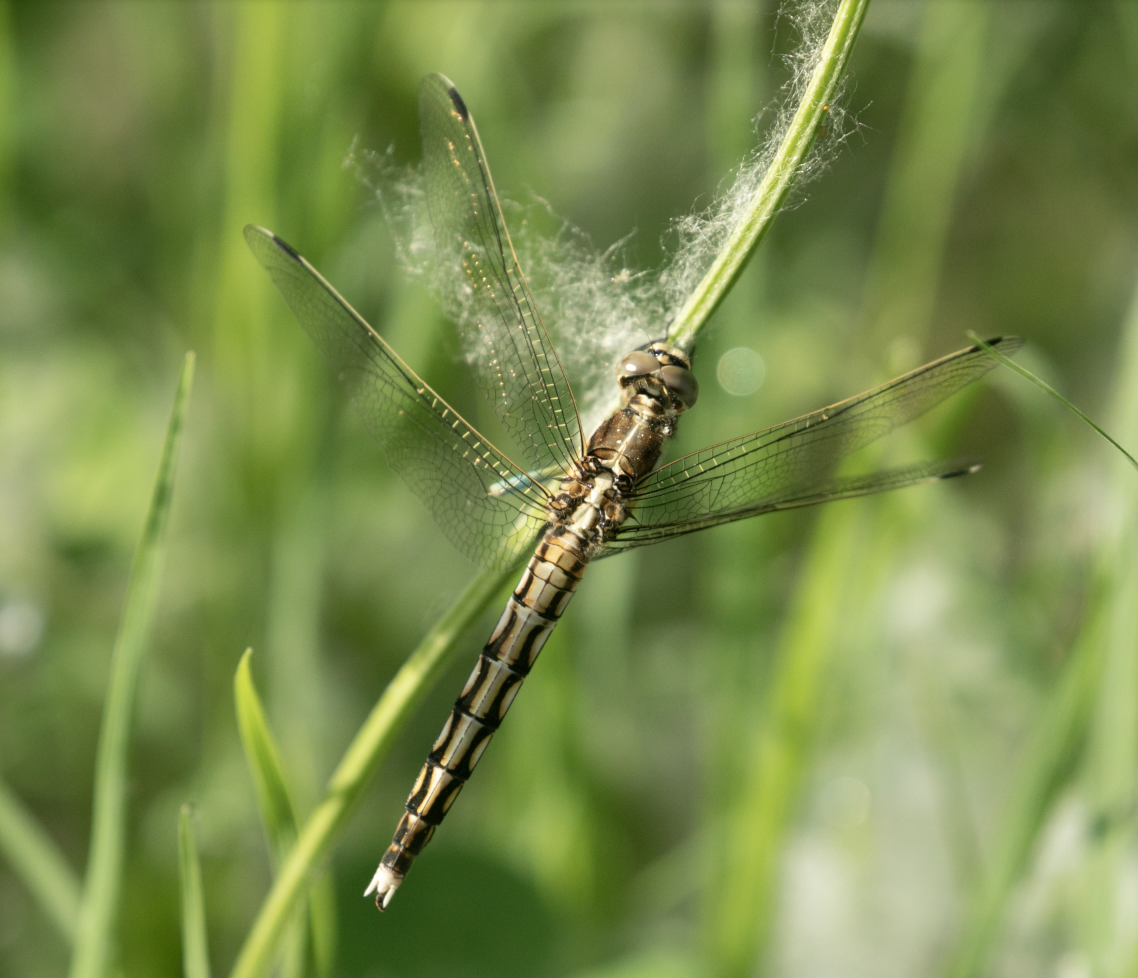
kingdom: Animalia
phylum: Arthropoda
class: Insecta
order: Odonata
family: Libellulidae
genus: Orthetrum
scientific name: Orthetrum albistylum
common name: White-tailed skimmer
